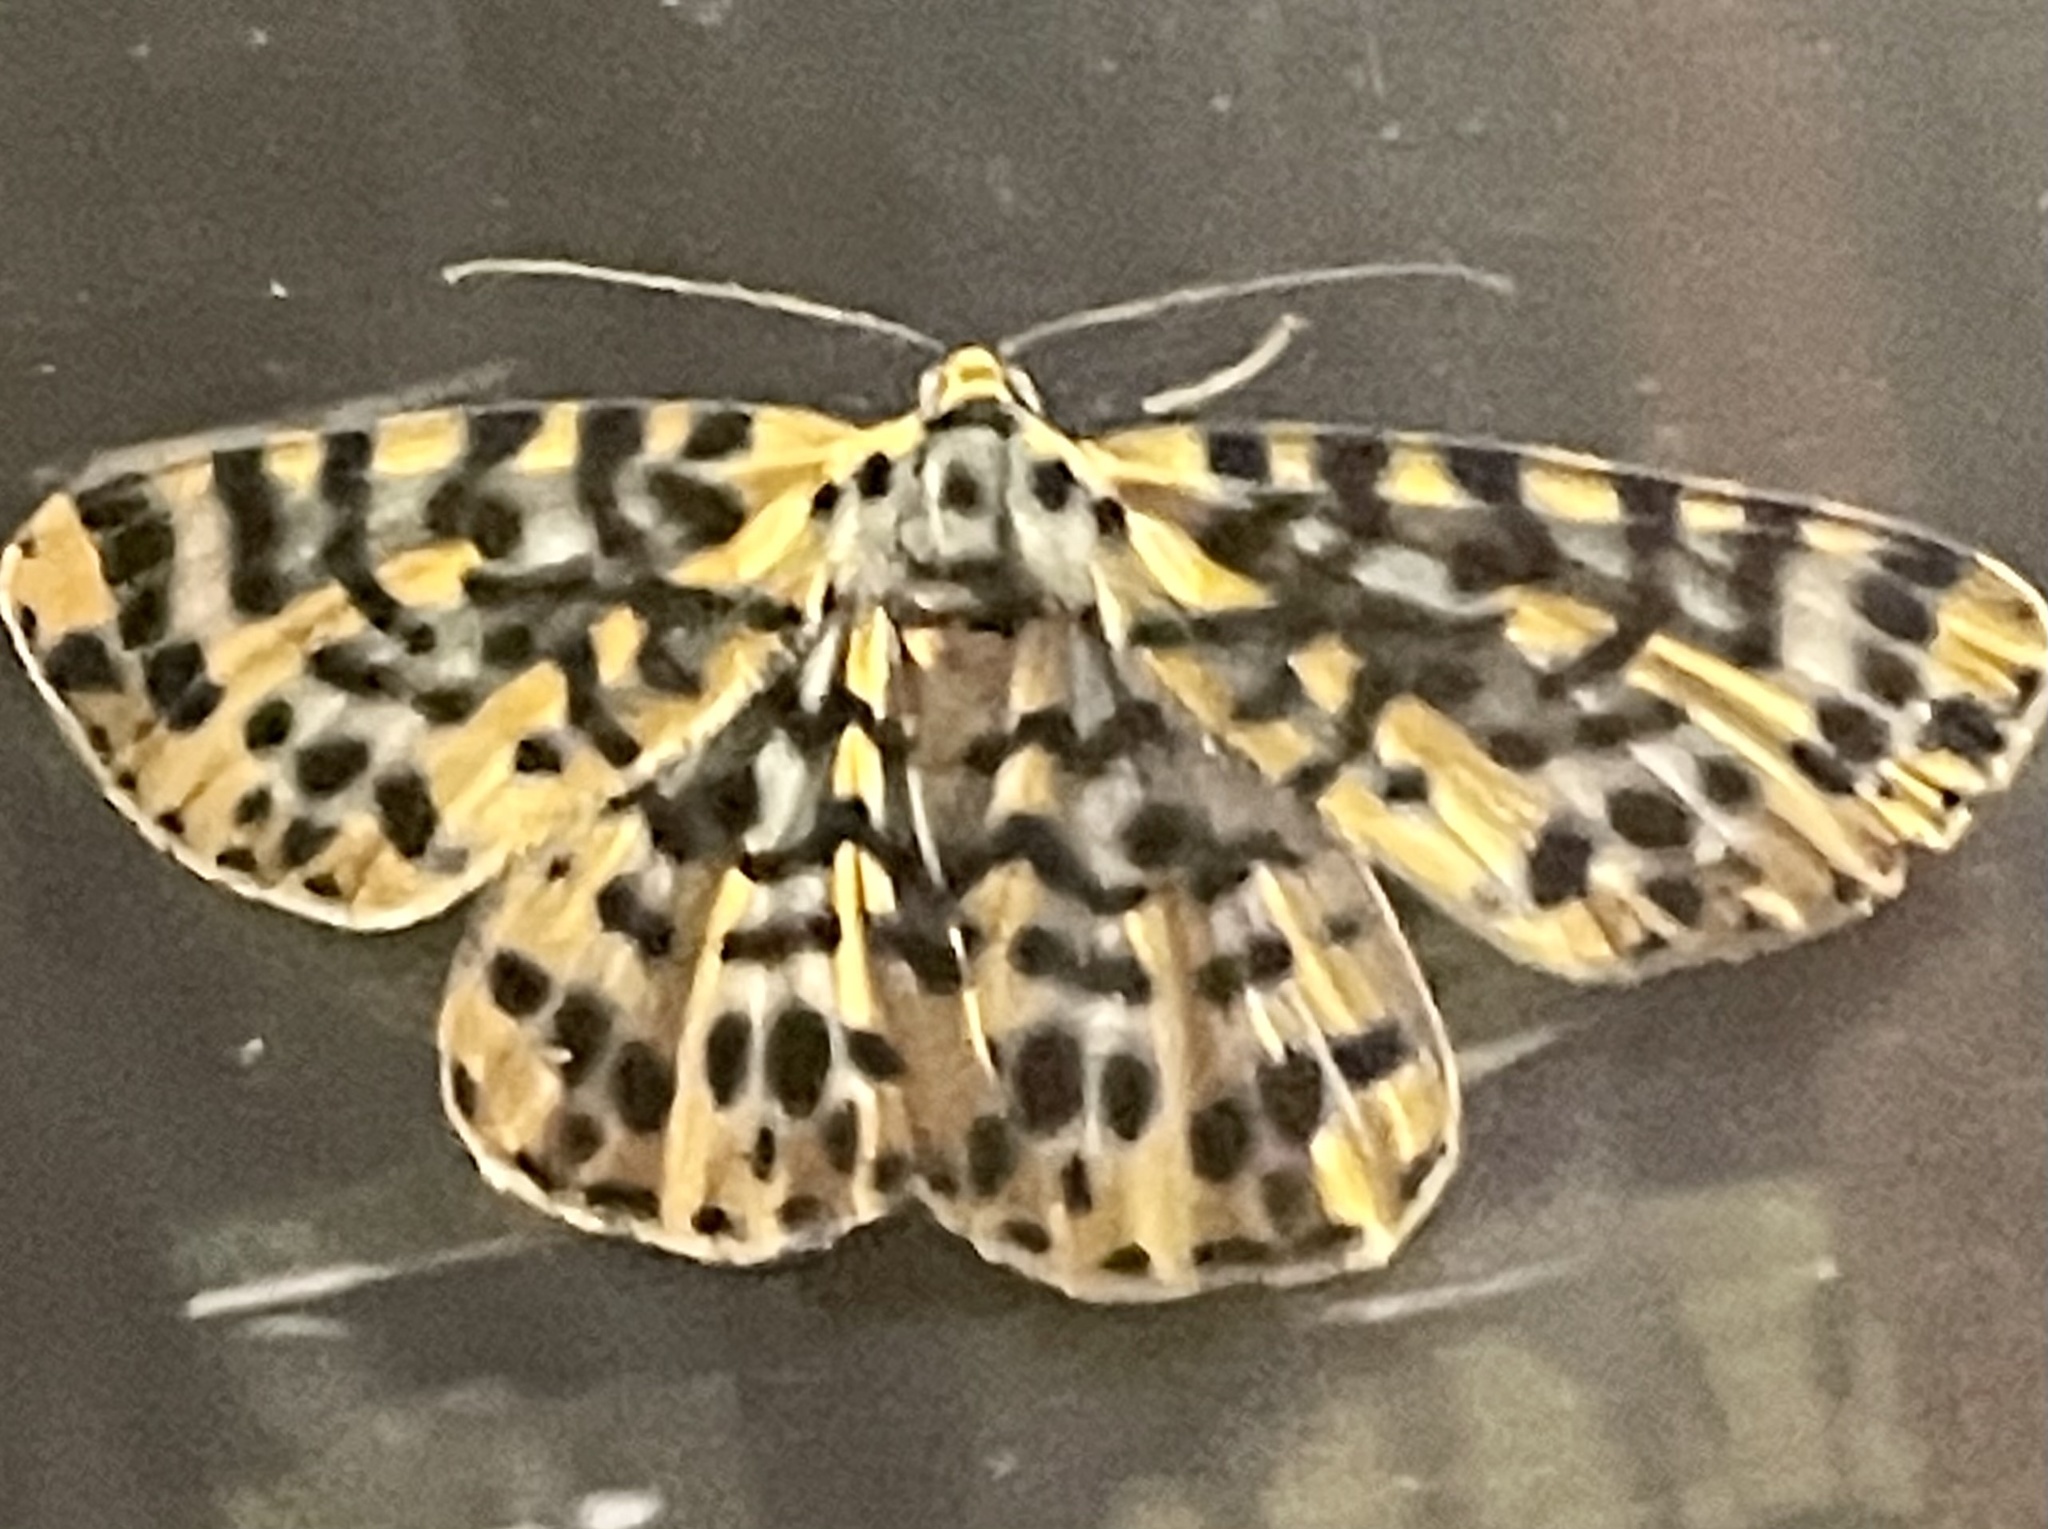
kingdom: Animalia
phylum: Arthropoda
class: Insecta
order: Lepidoptera
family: Geometridae
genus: Bracca
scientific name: Bracca matutinata
